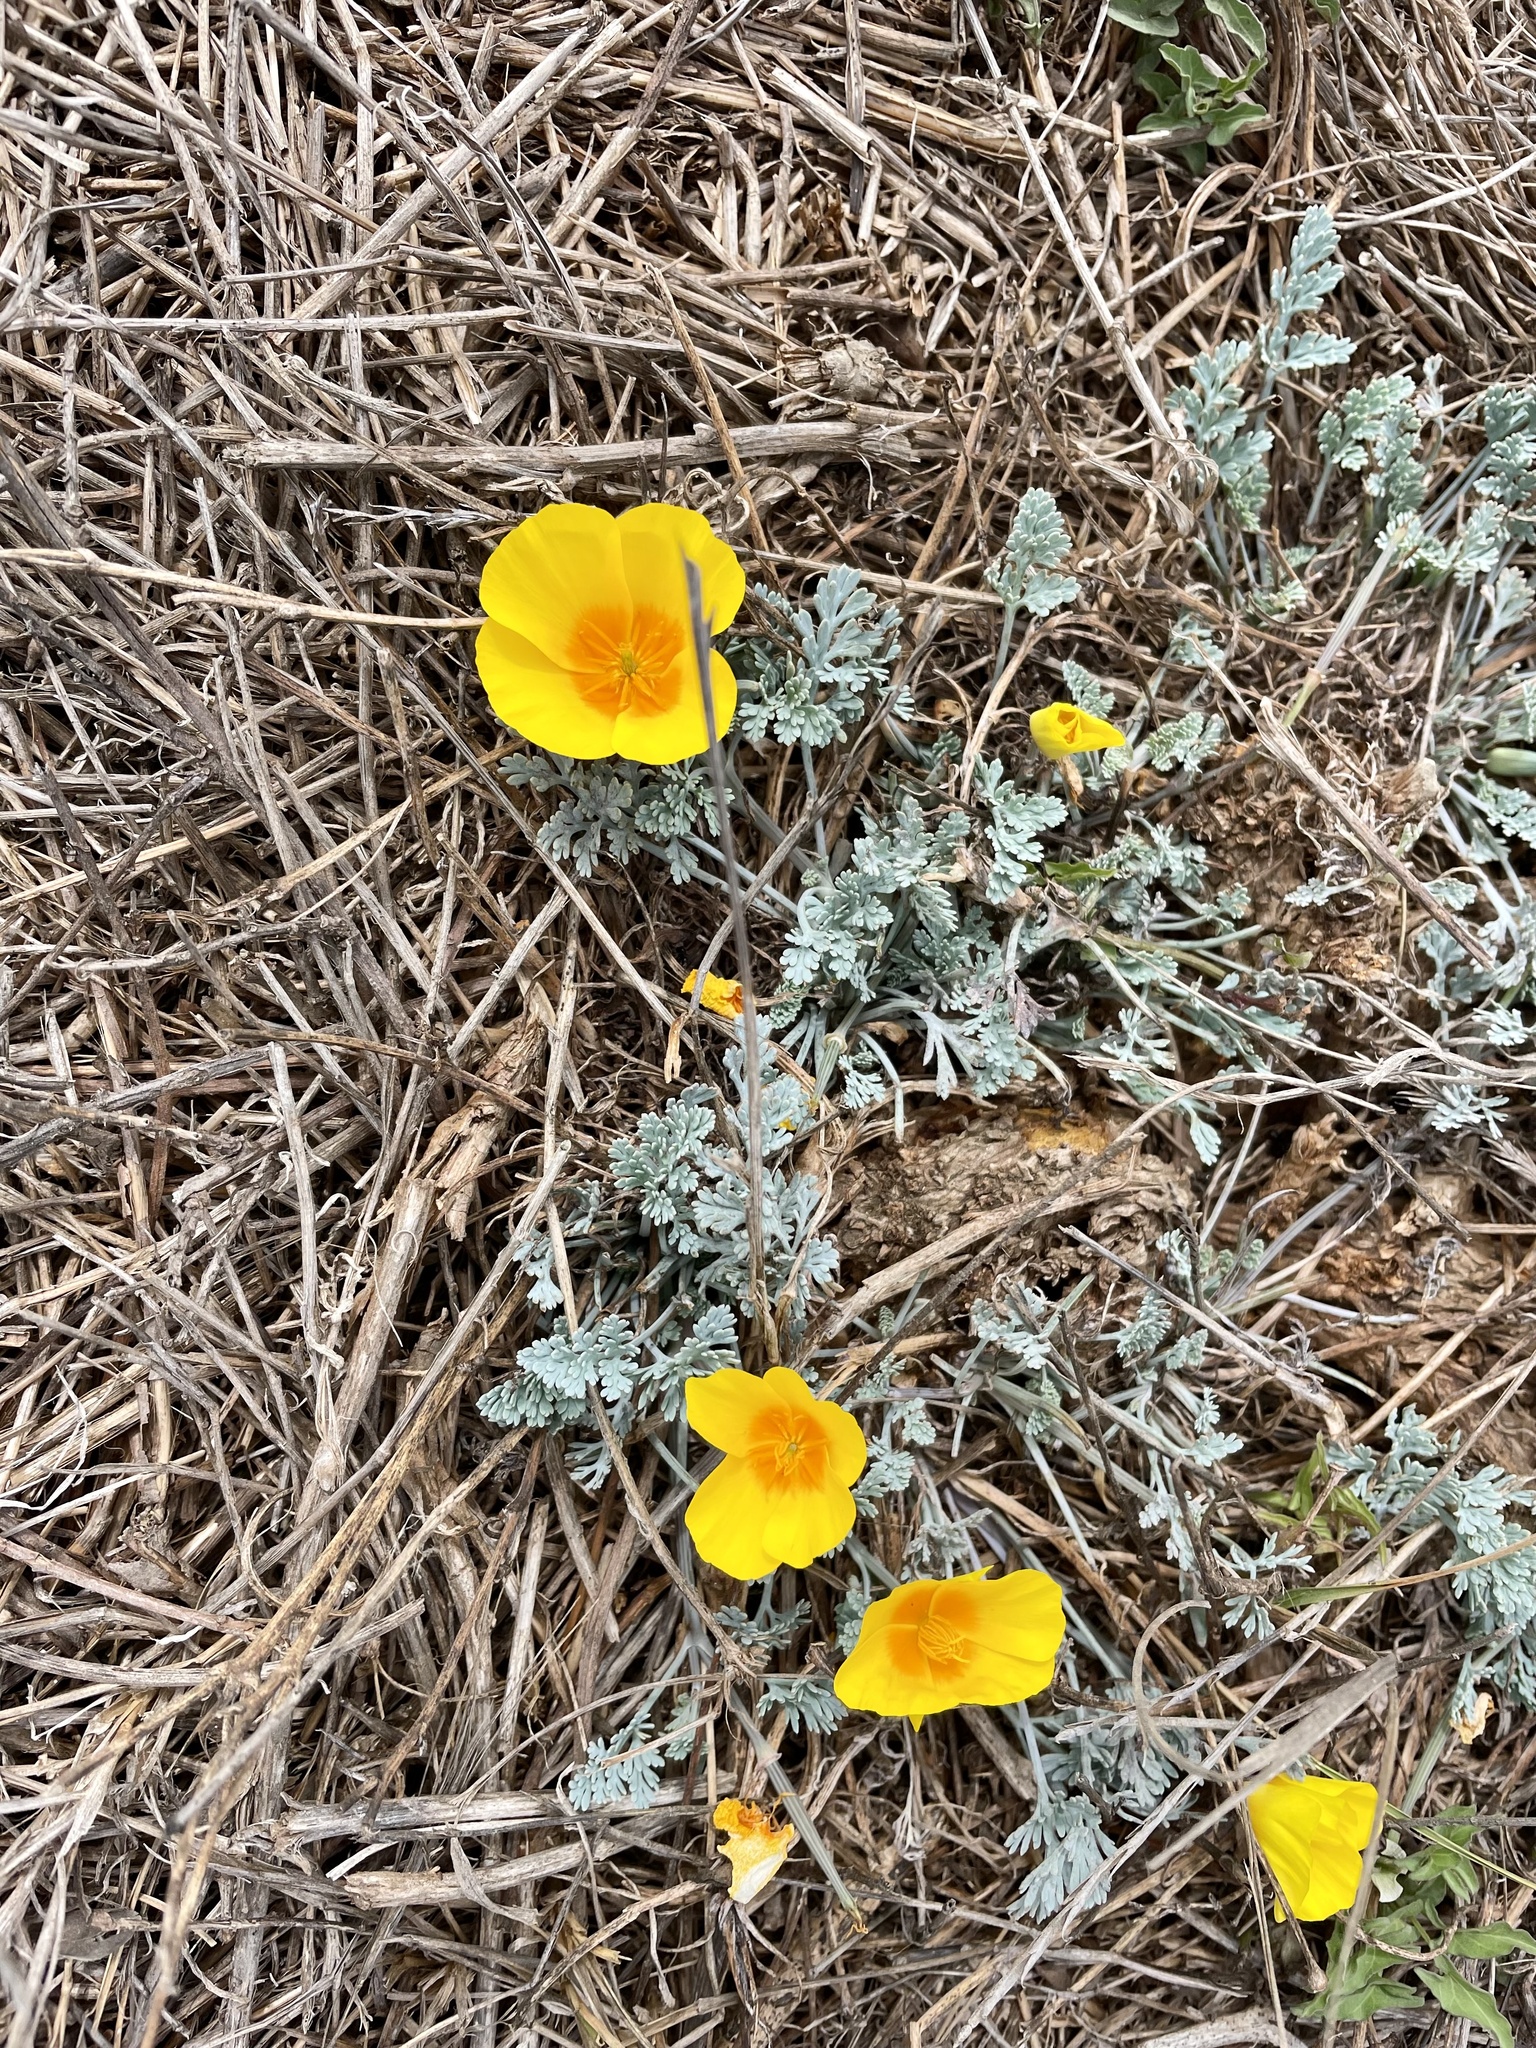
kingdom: Plantae
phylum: Tracheophyta
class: Magnoliopsida
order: Ranunculales
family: Papaveraceae
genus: Eschscholzia
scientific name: Eschscholzia californica
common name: California poppy
